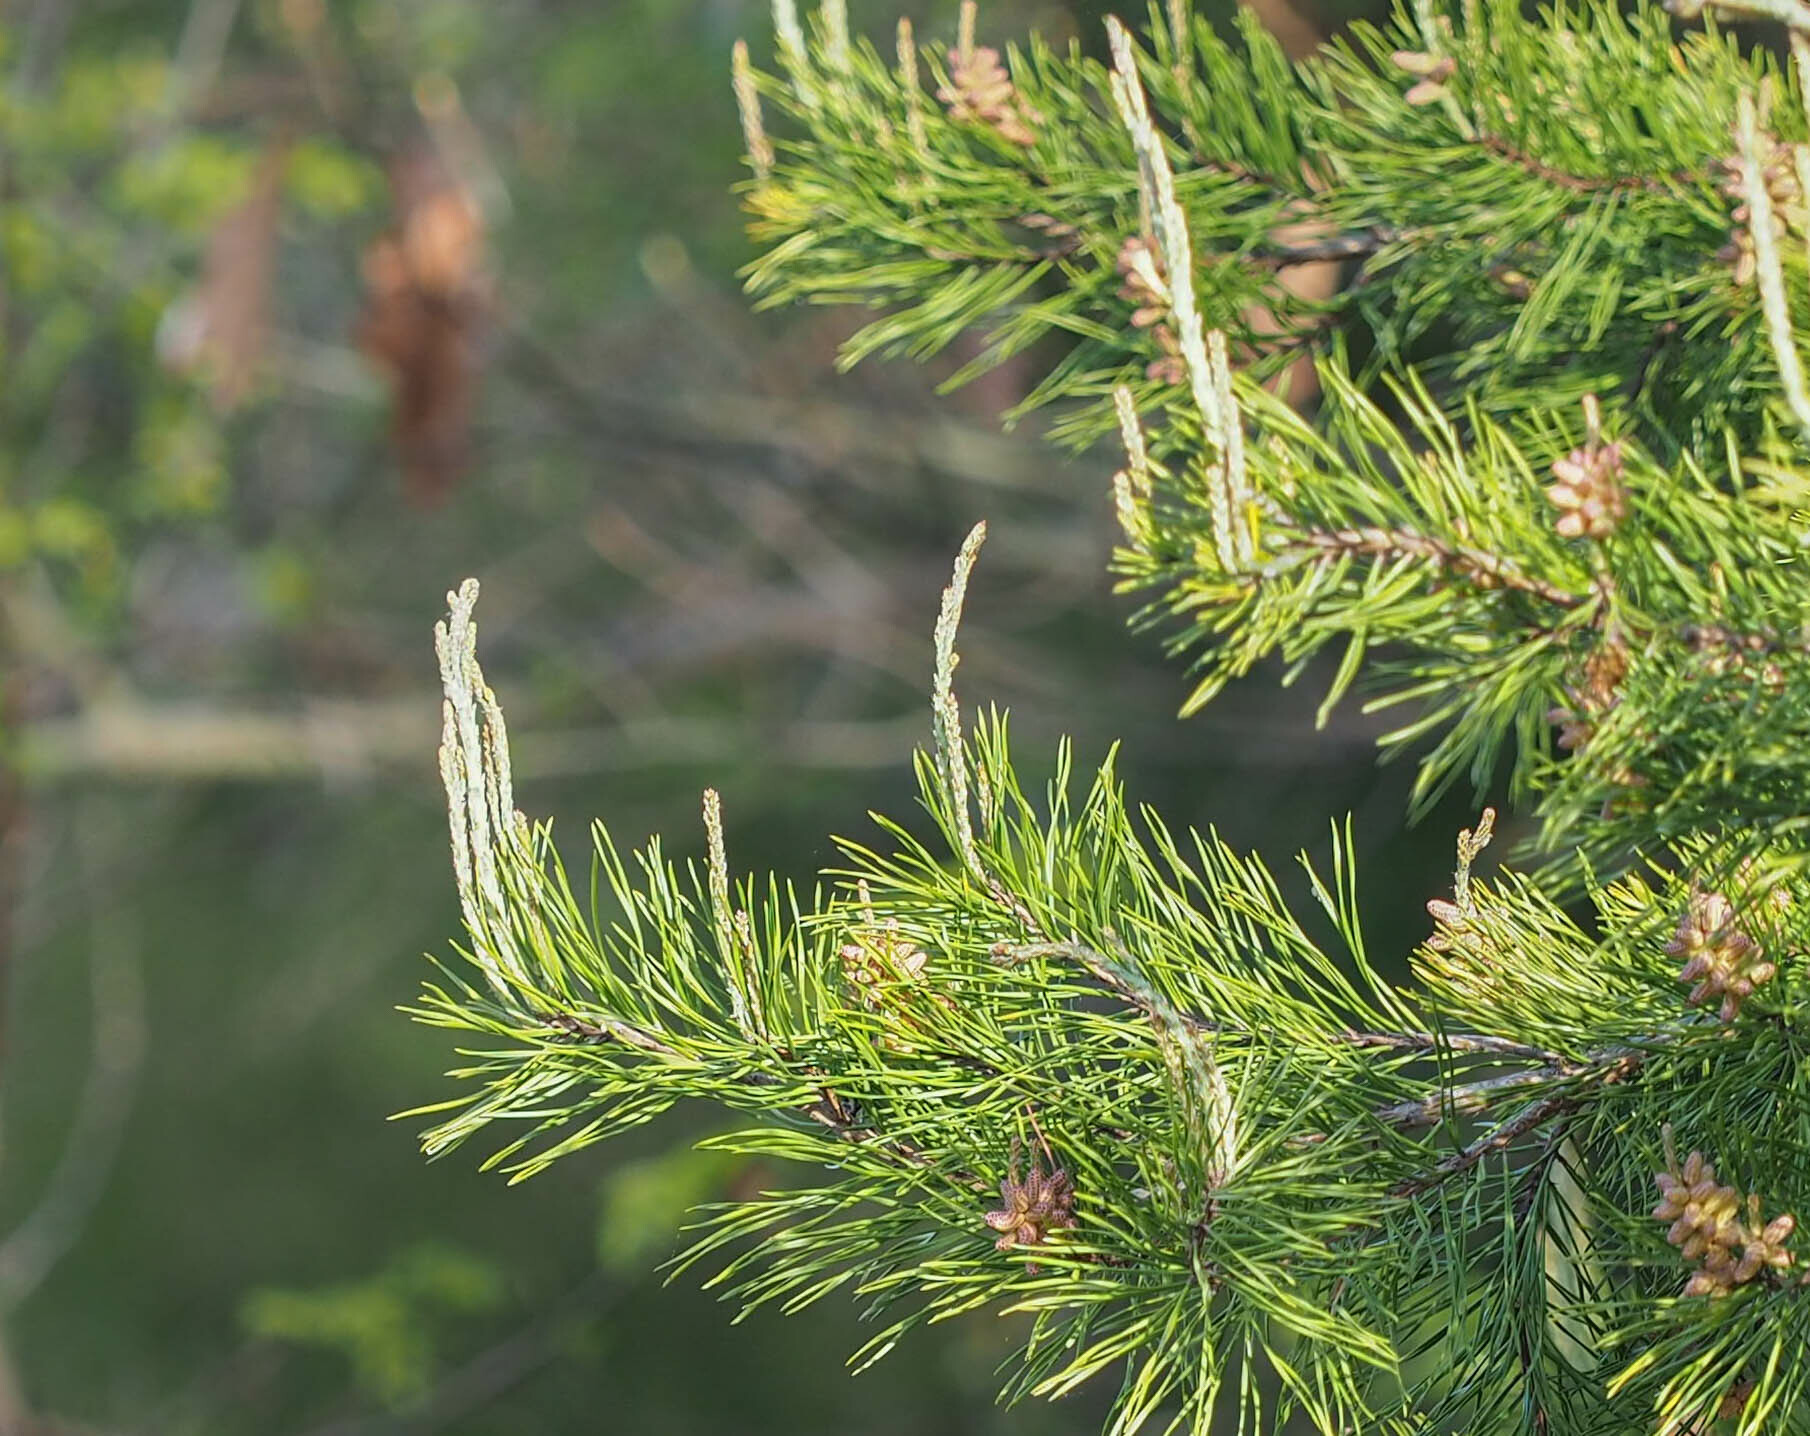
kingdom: Plantae
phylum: Tracheophyta
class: Pinopsida
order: Pinales
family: Pinaceae
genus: Pinus
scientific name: Pinus virginiana
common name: Scrub pine
